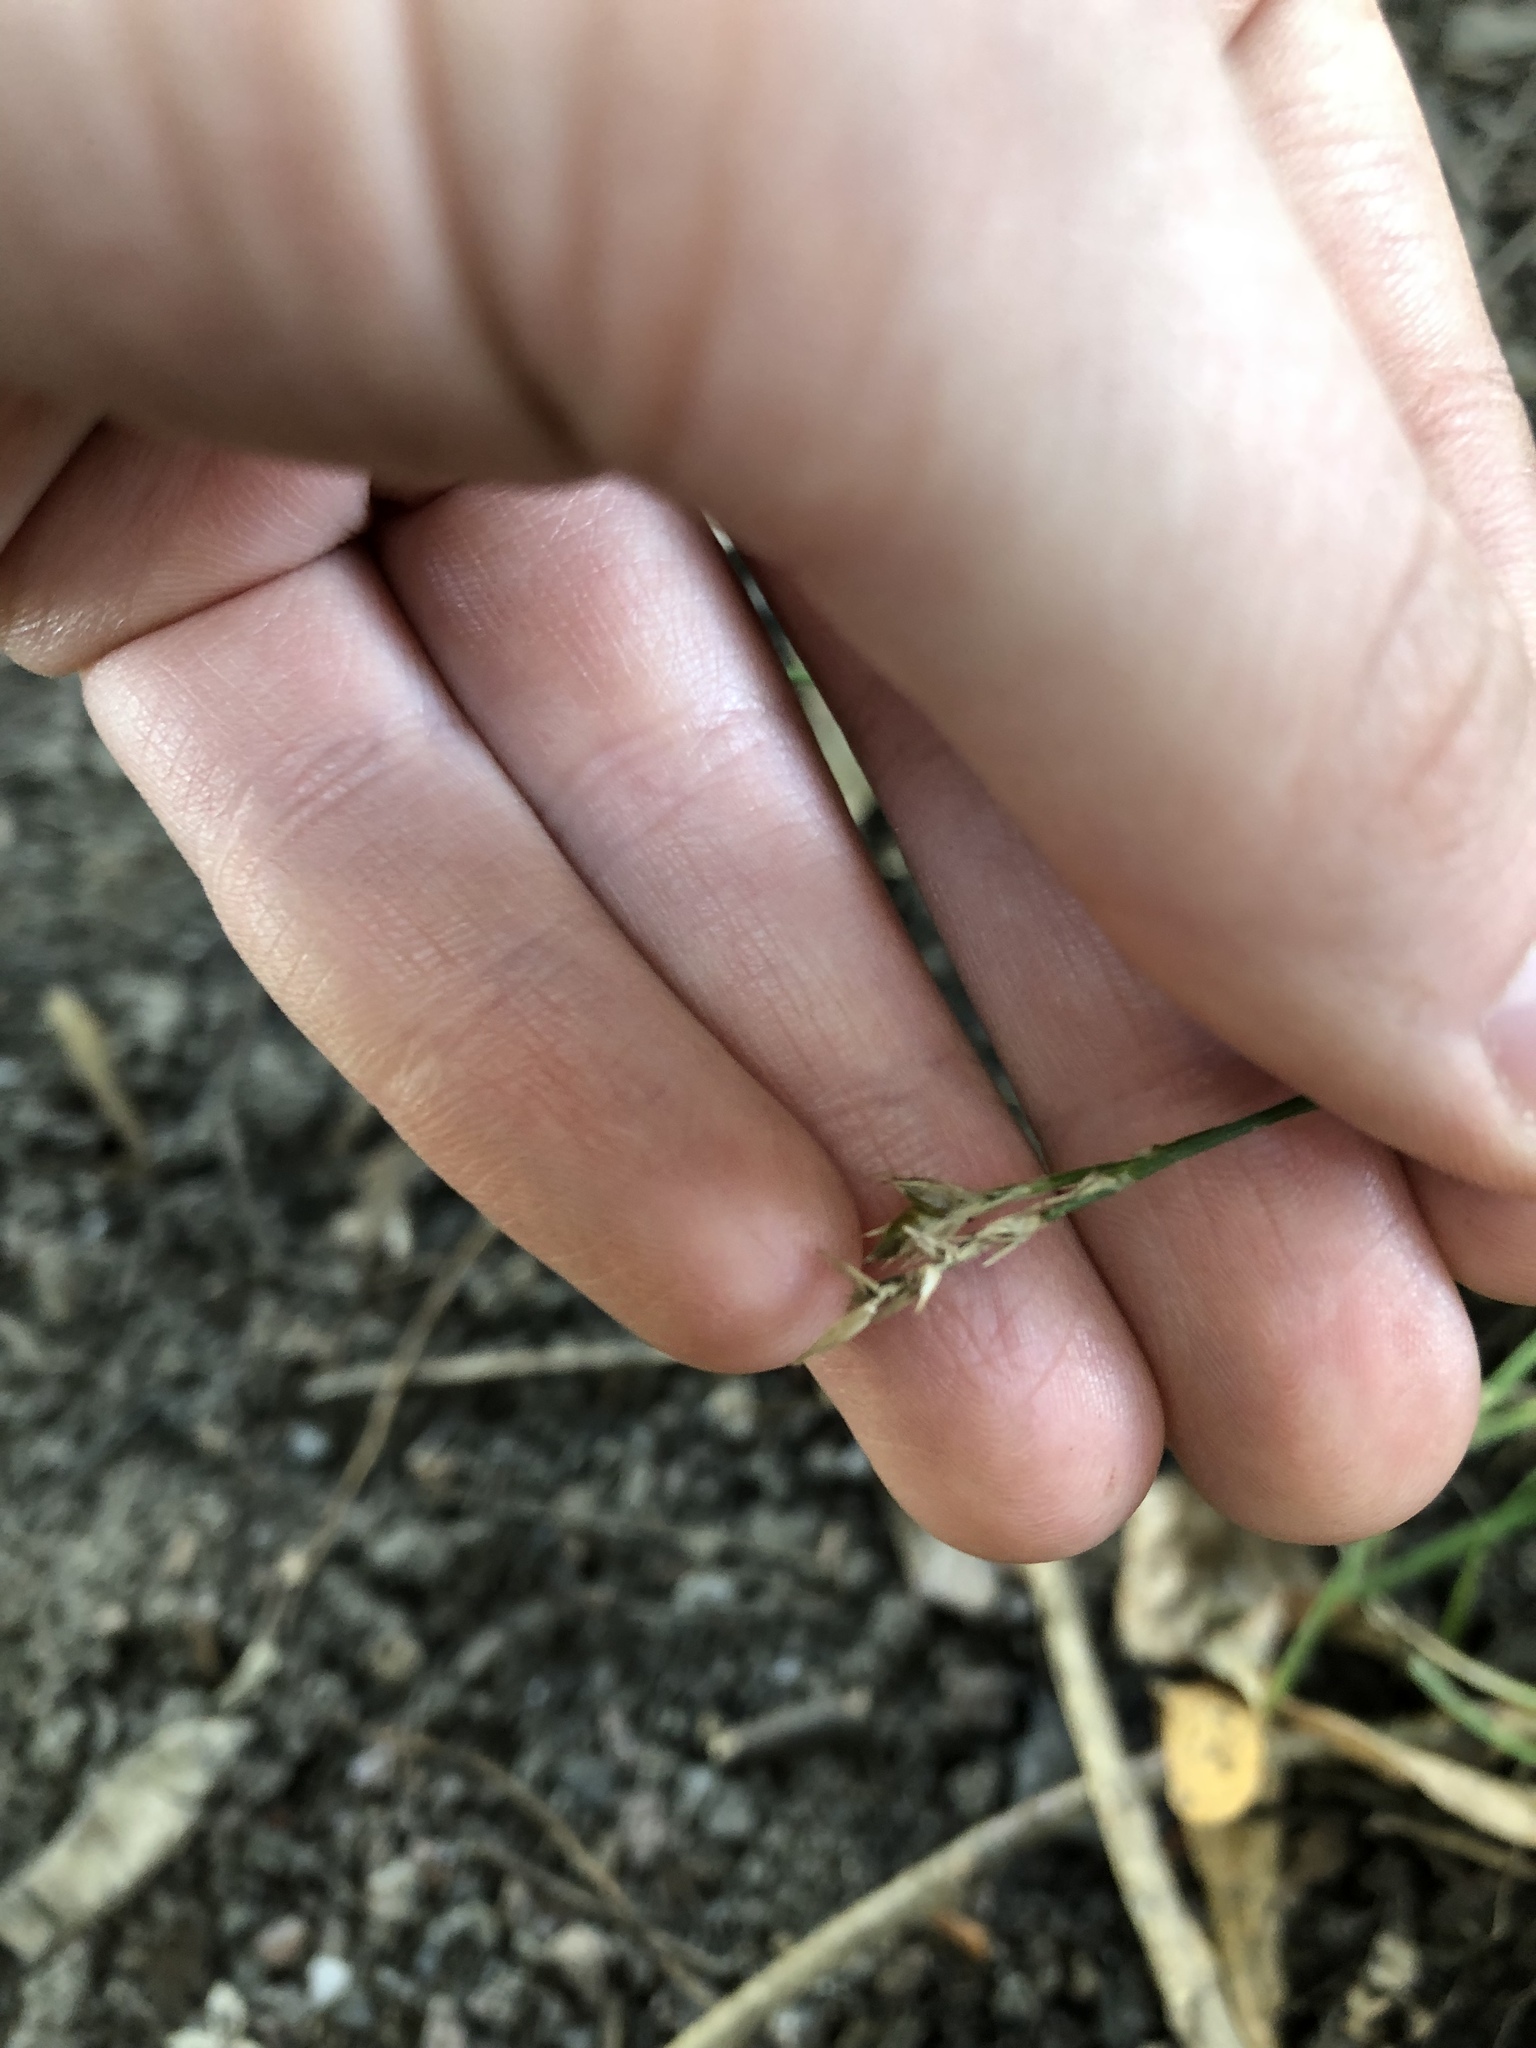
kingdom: Plantae
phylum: Tracheophyta
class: Liliopsida
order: Poales
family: Cyperaceae
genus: Carex
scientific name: Carex spicata
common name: Spiked sedge
